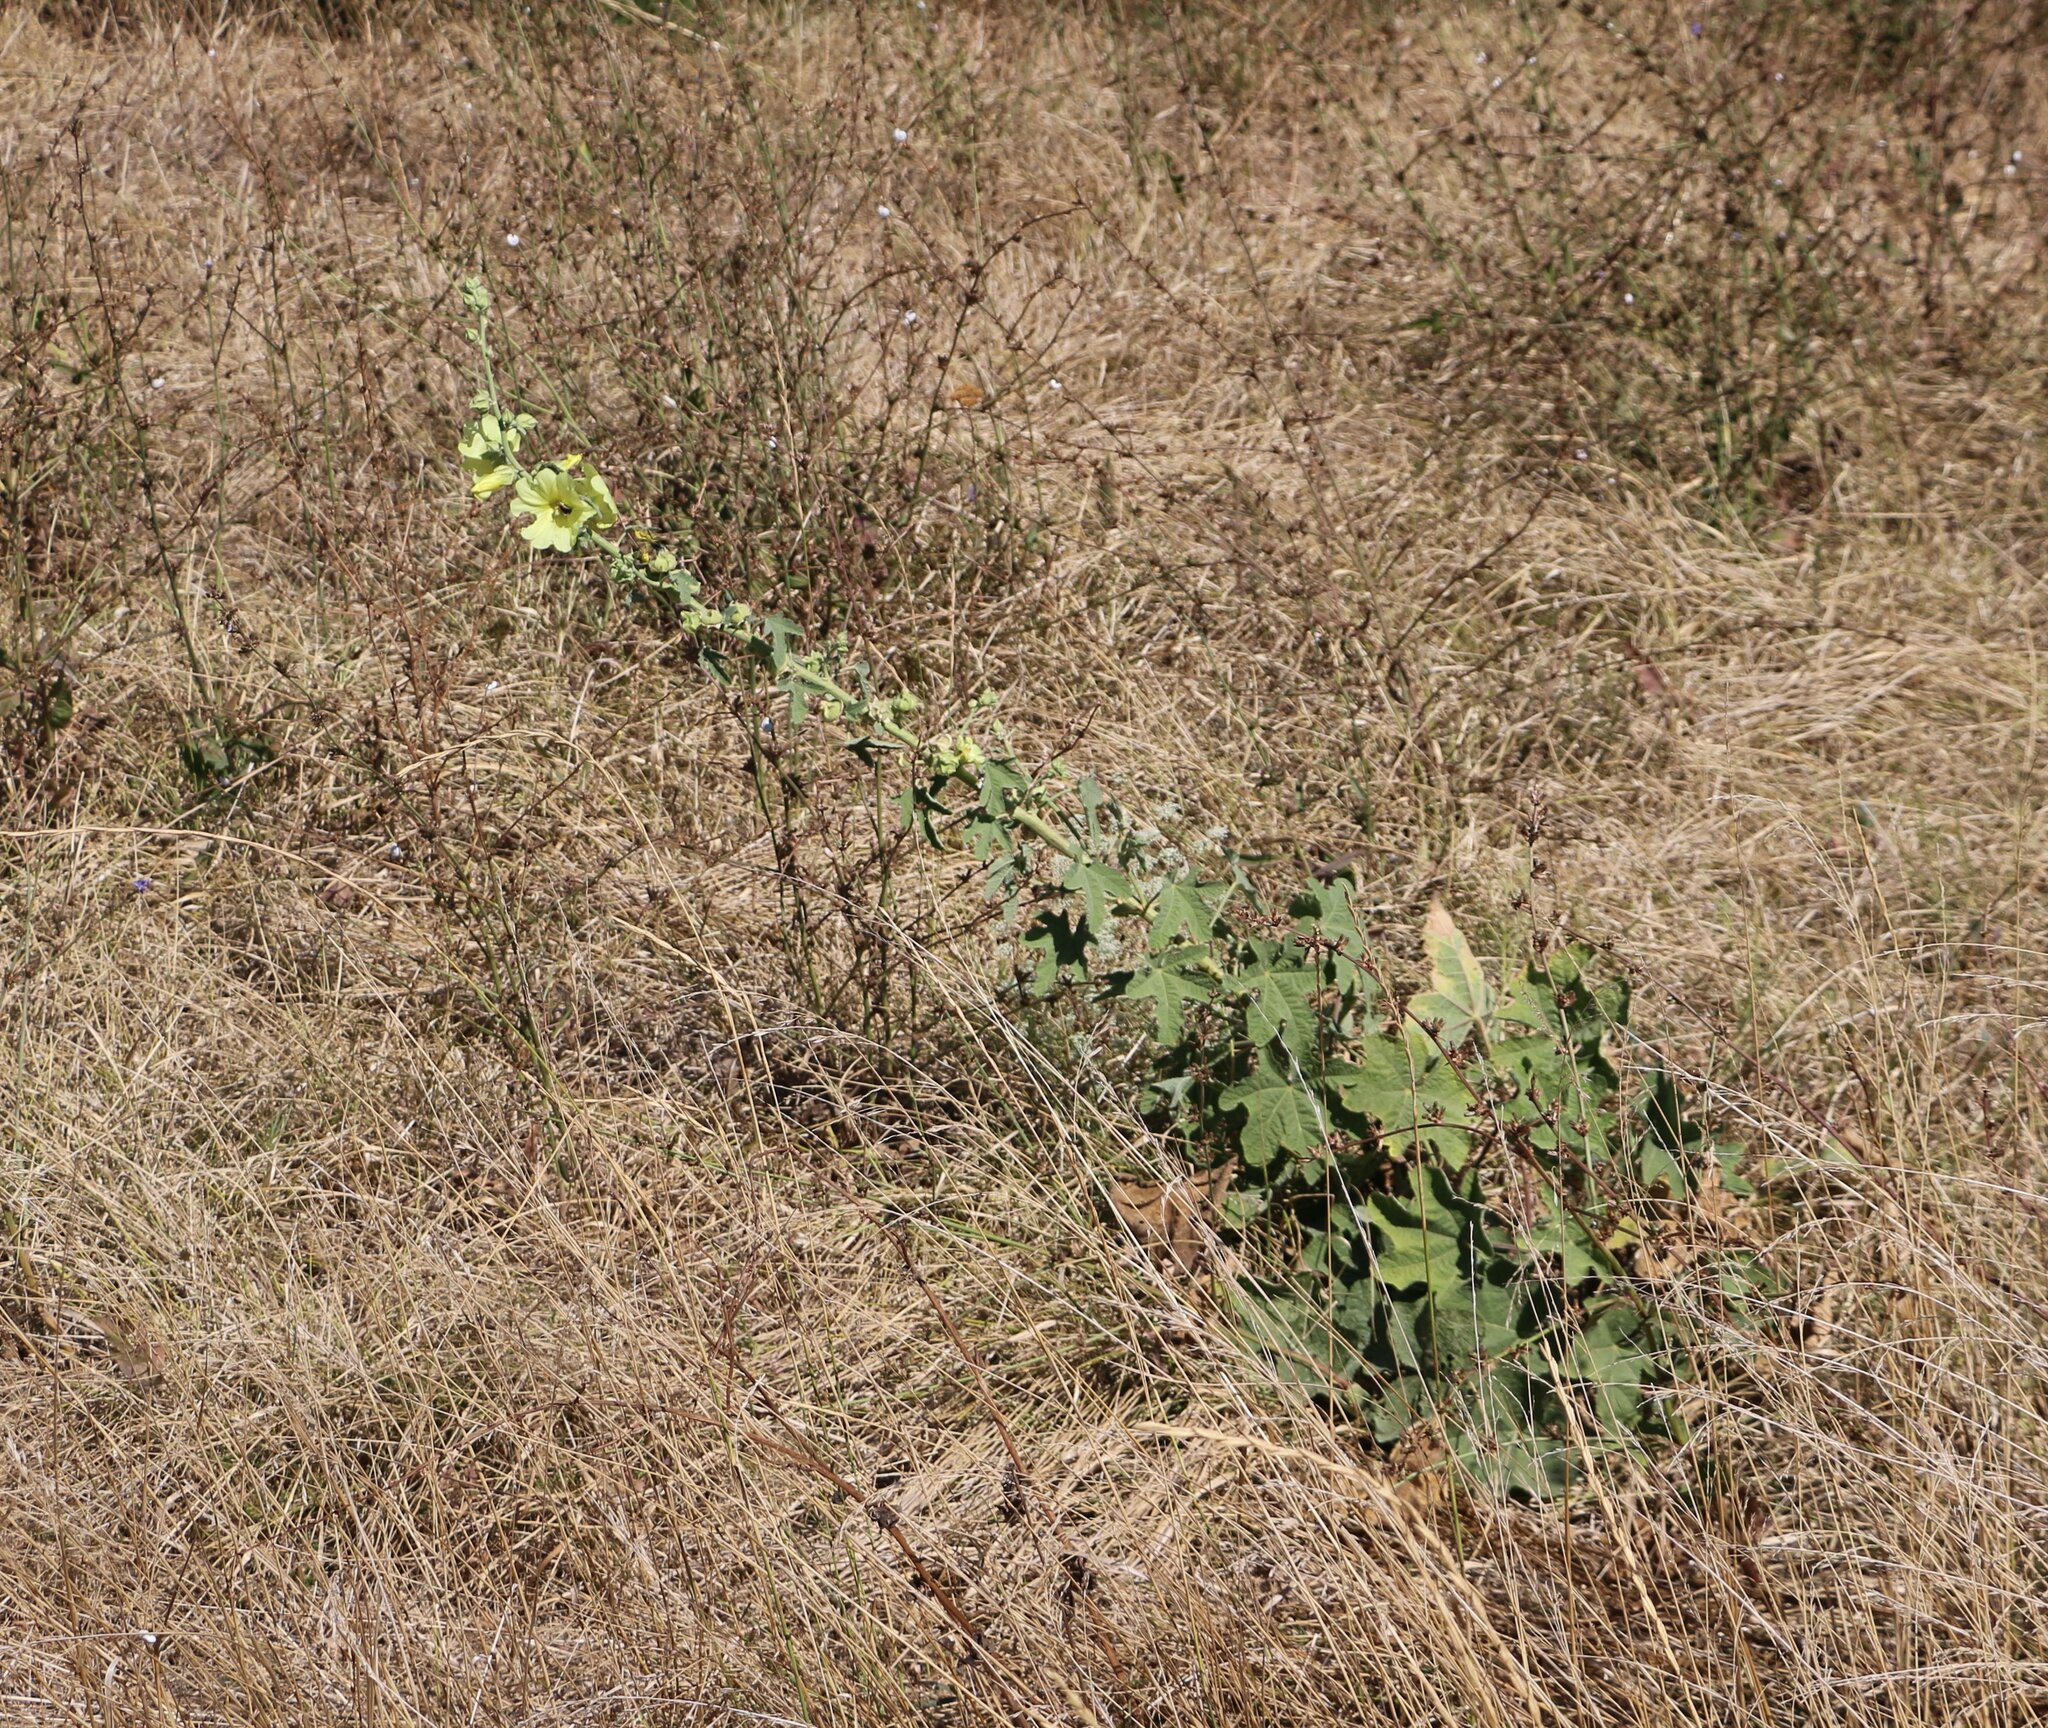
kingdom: Plantae
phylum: Tracheophyta
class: Magnoliopsida
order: Malvales
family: Malvaceae
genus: Alcea
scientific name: Alcea rugosa
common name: Russian hollyhock
